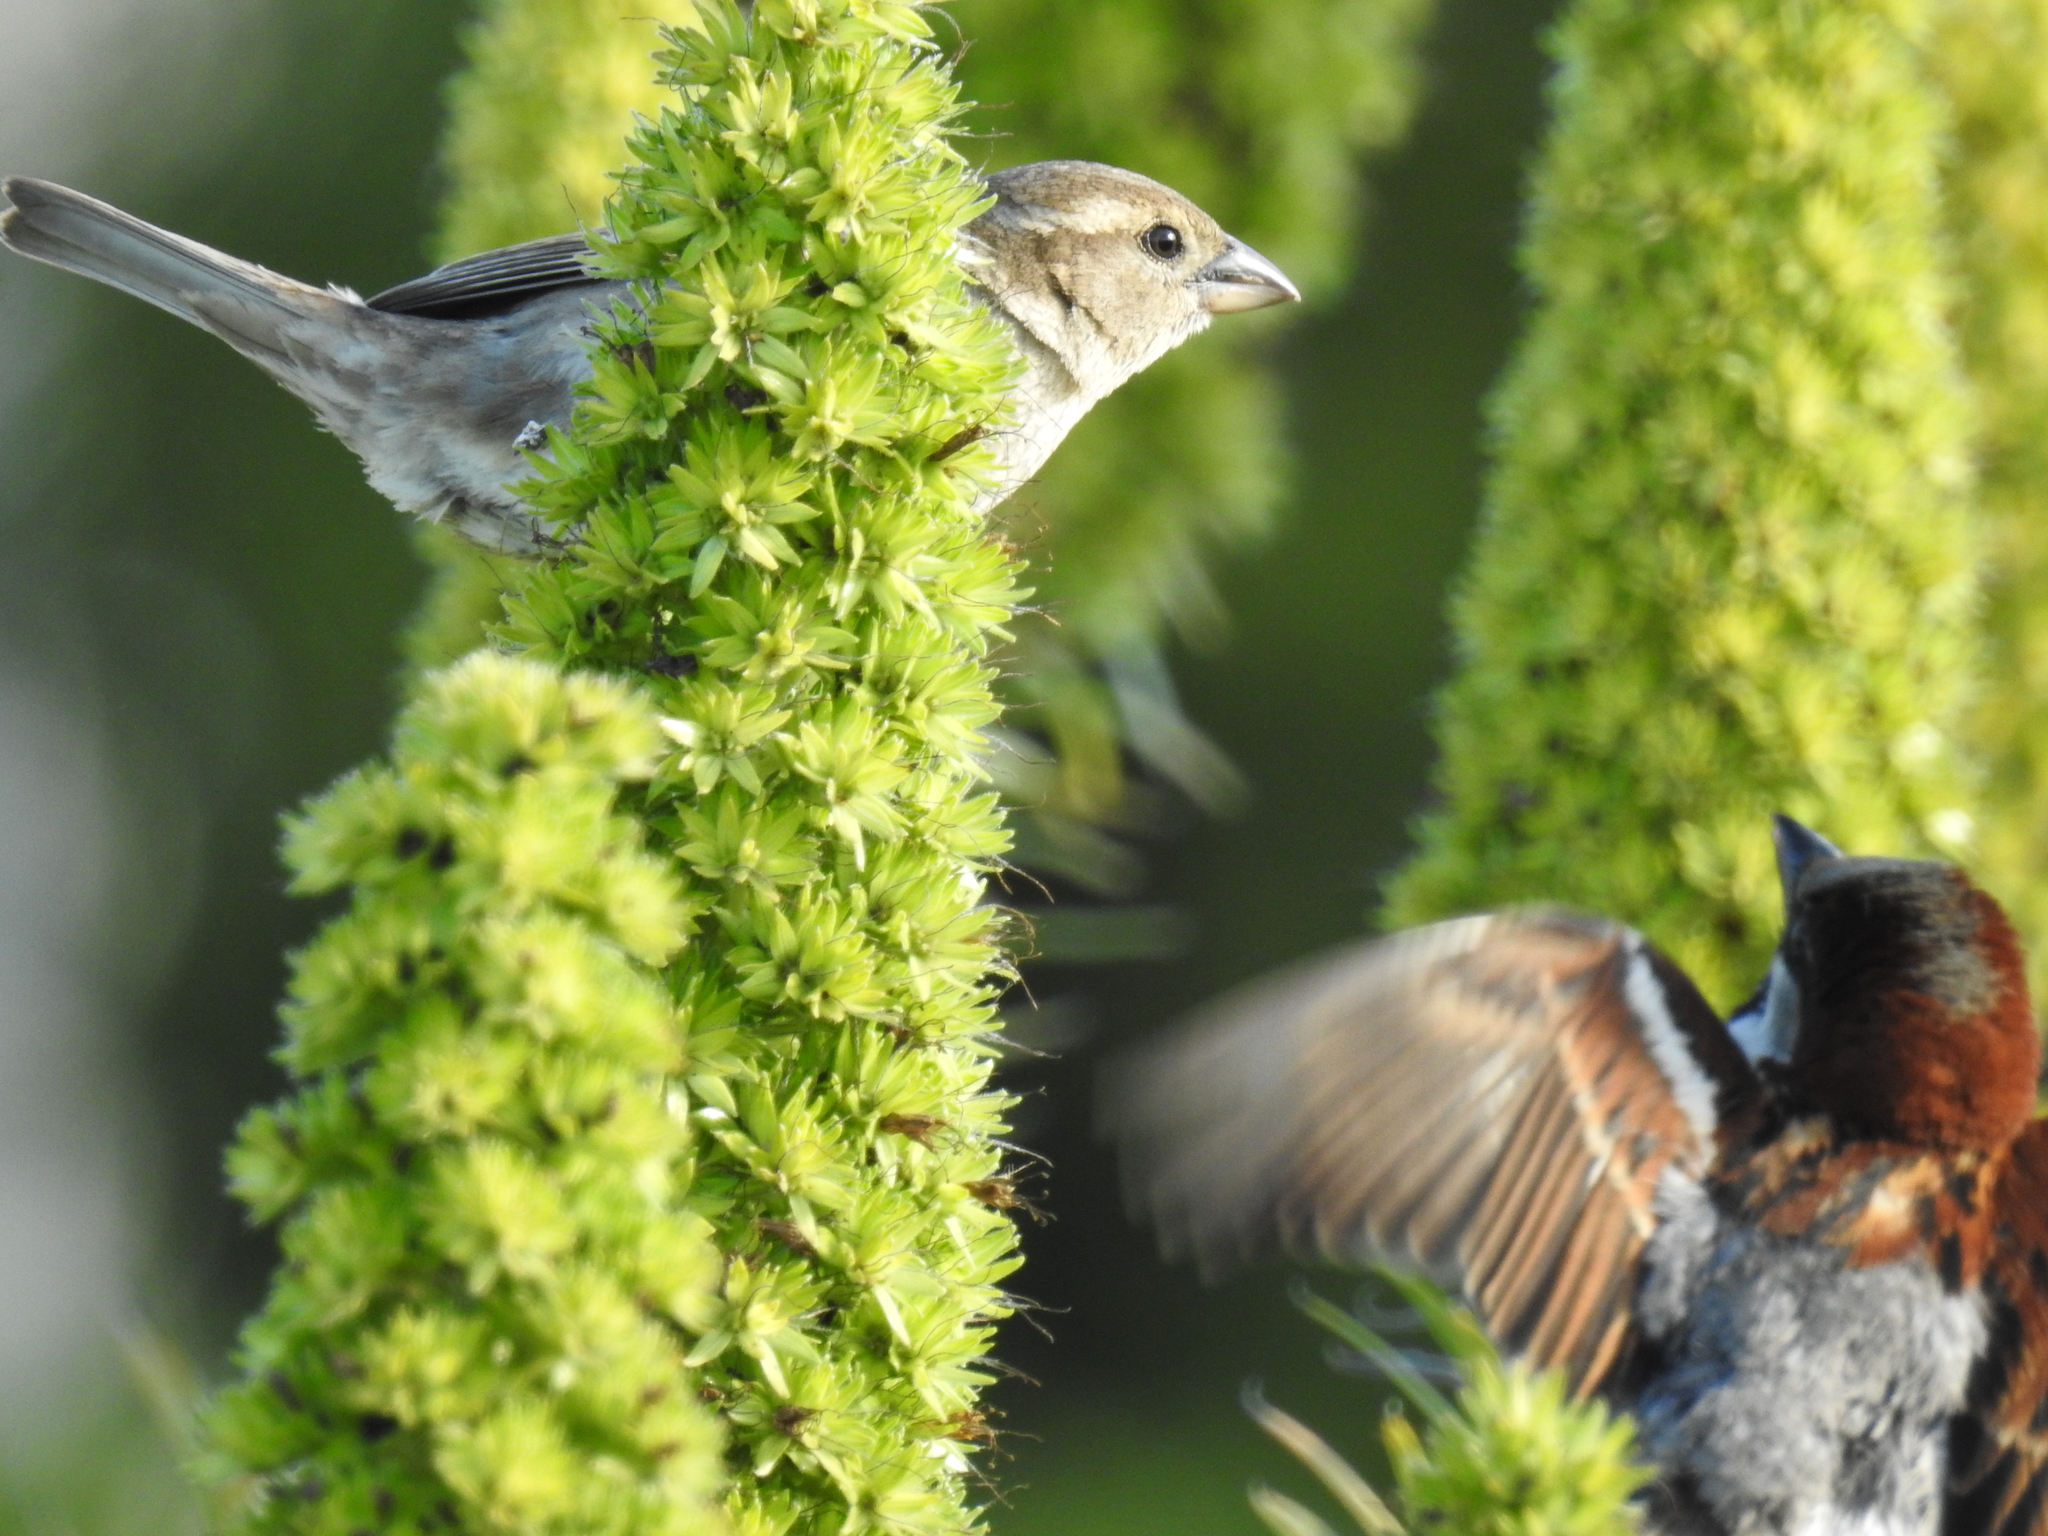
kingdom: Animalia
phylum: Chordata
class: Aves
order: Passeriformes
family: Passeridae
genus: Passer
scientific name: Passer domesticus
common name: House sparrow
